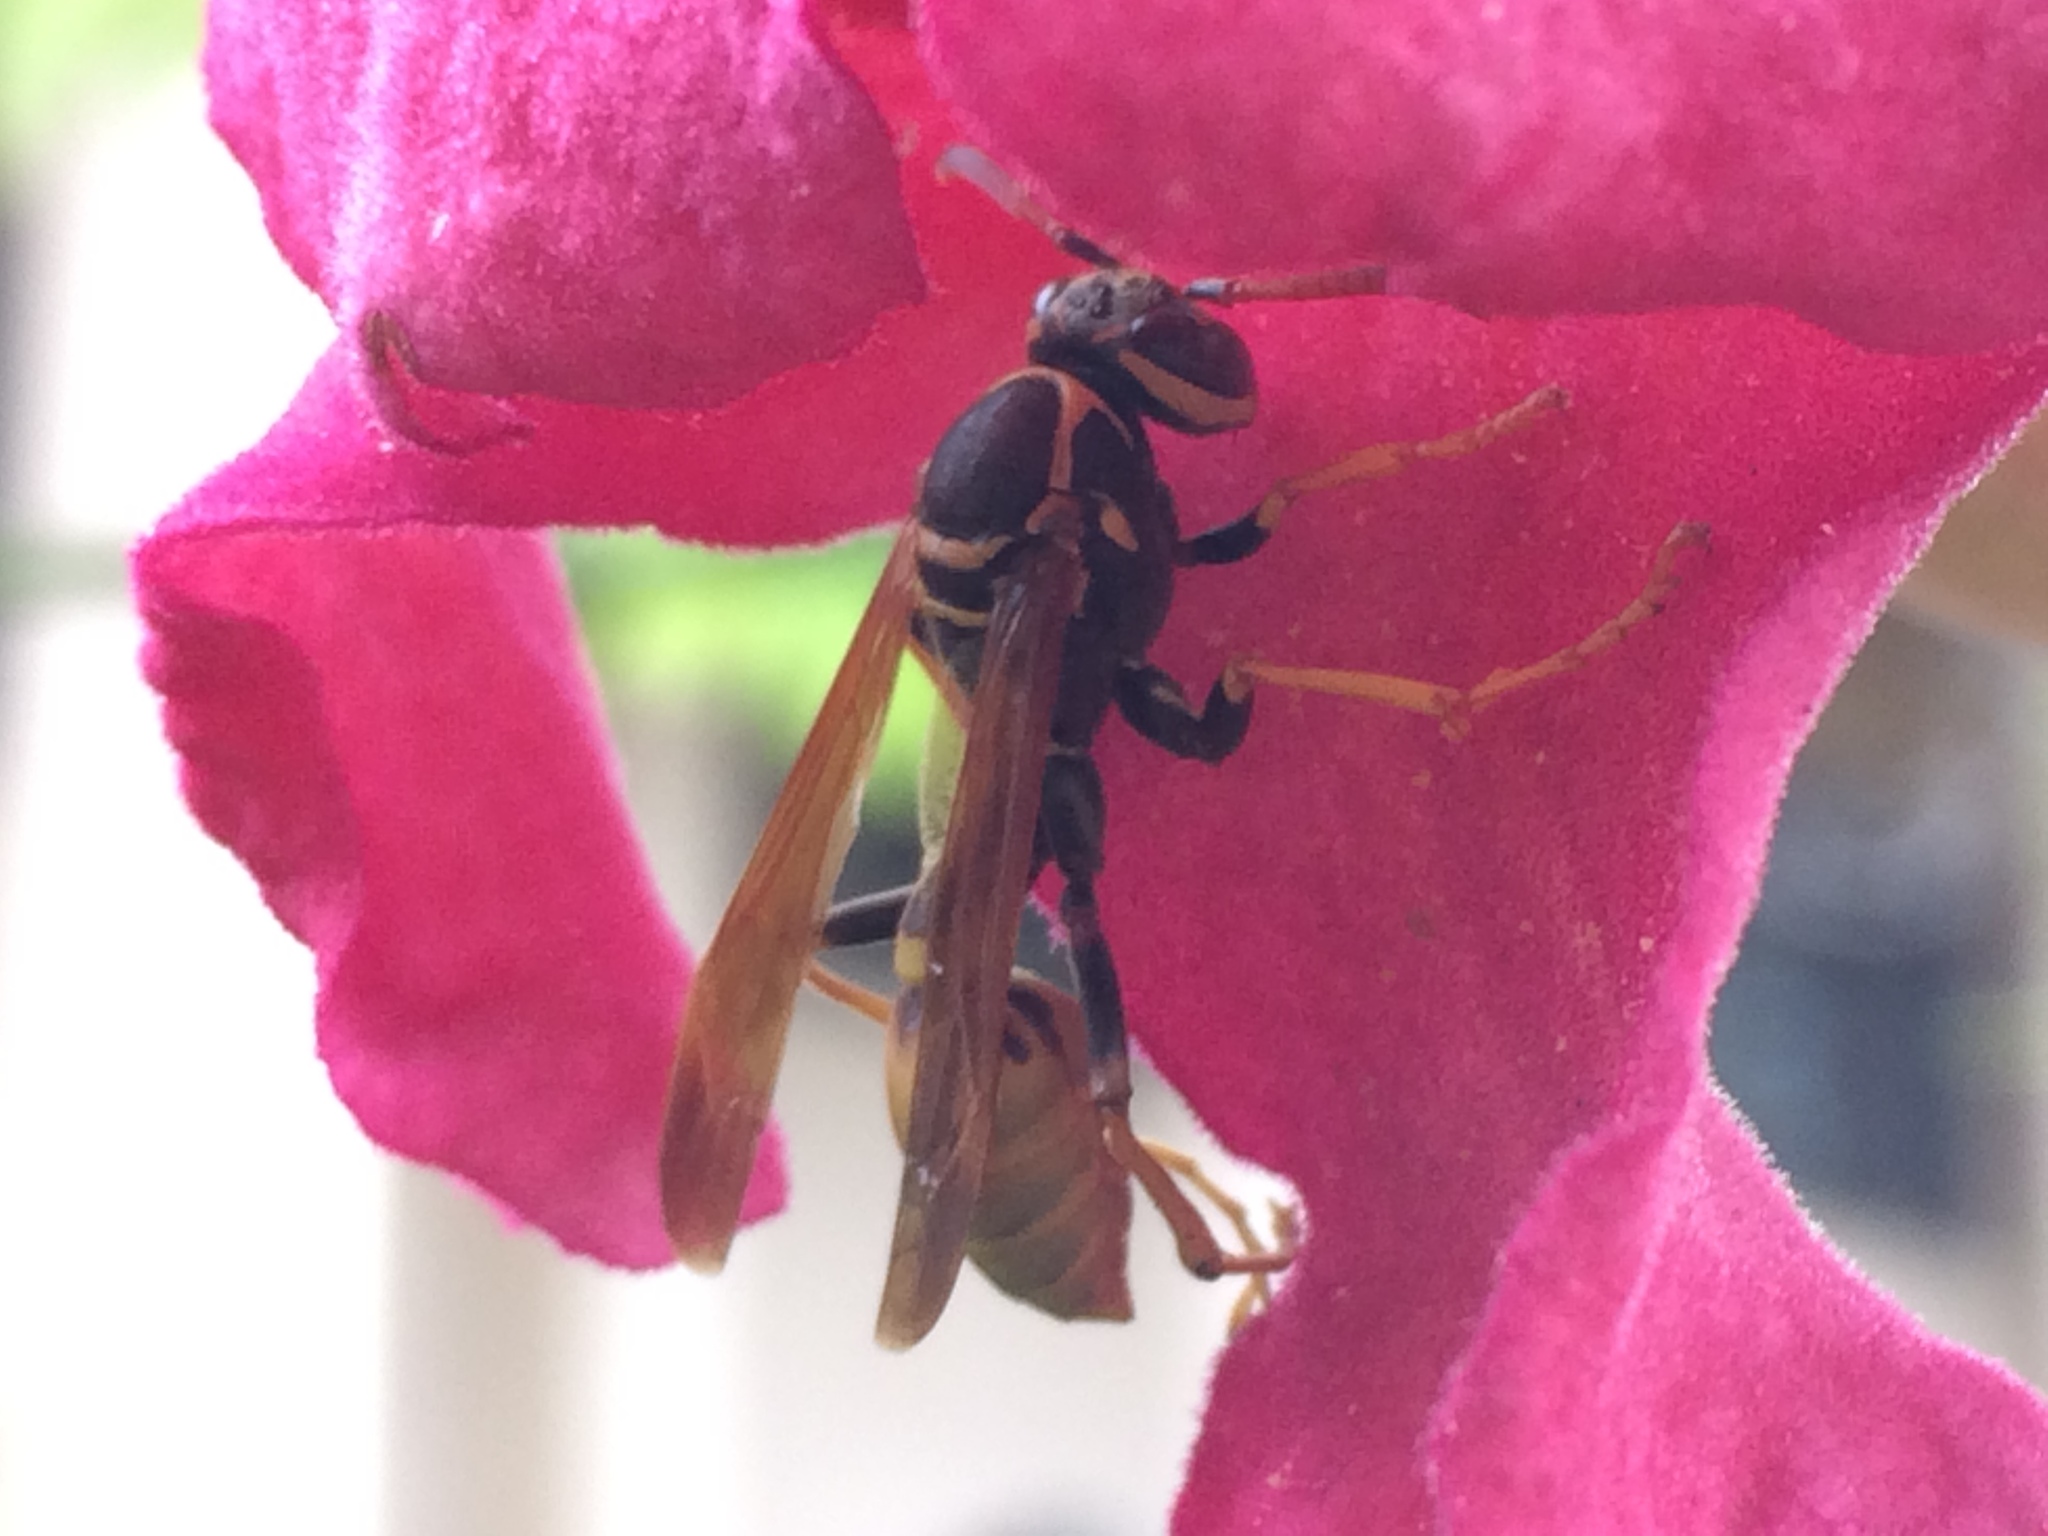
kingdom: Animalia
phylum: Arthropoda
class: Insecta
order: Hymenoptera
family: Vespidae
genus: Mischocyttarus
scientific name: Mischocyttarus flavitarsis
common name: Wasp
